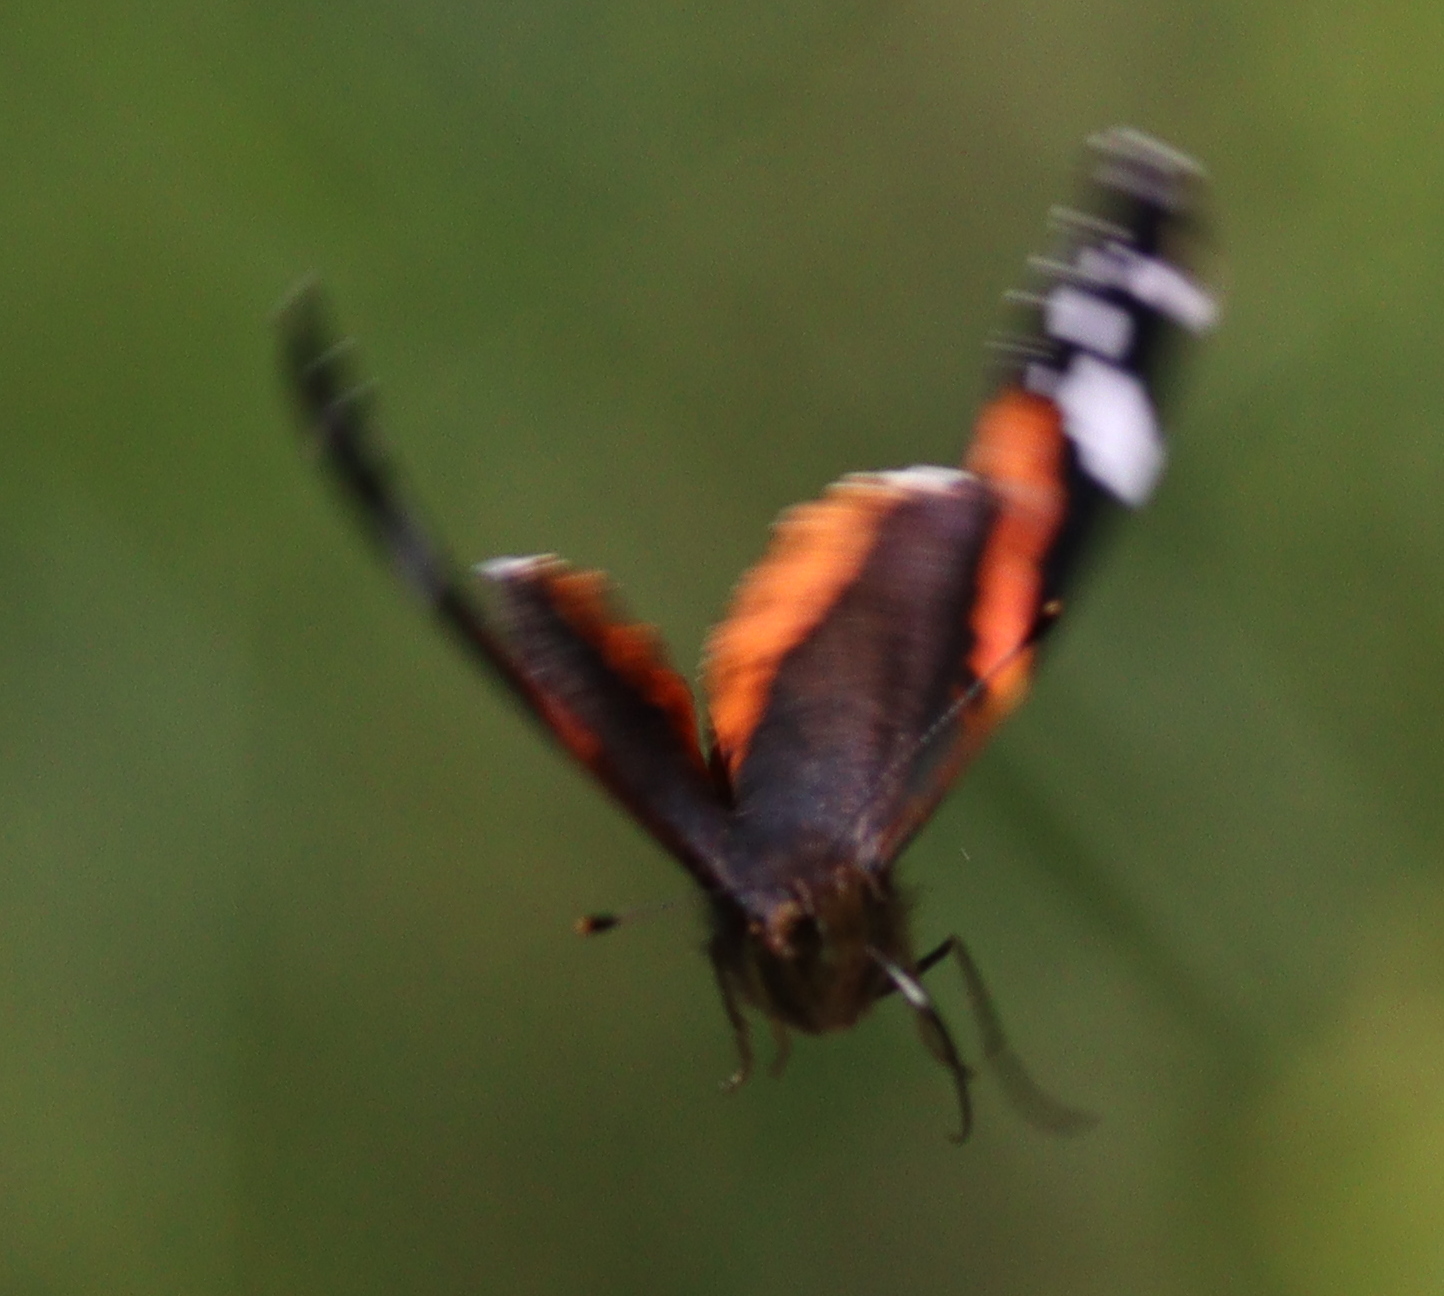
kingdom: Animalia
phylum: Arthropoda
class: Insecta
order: Lepidoptera
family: Nymphalidae
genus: Vanessa
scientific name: Vanessa atalanta
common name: Red admiral
